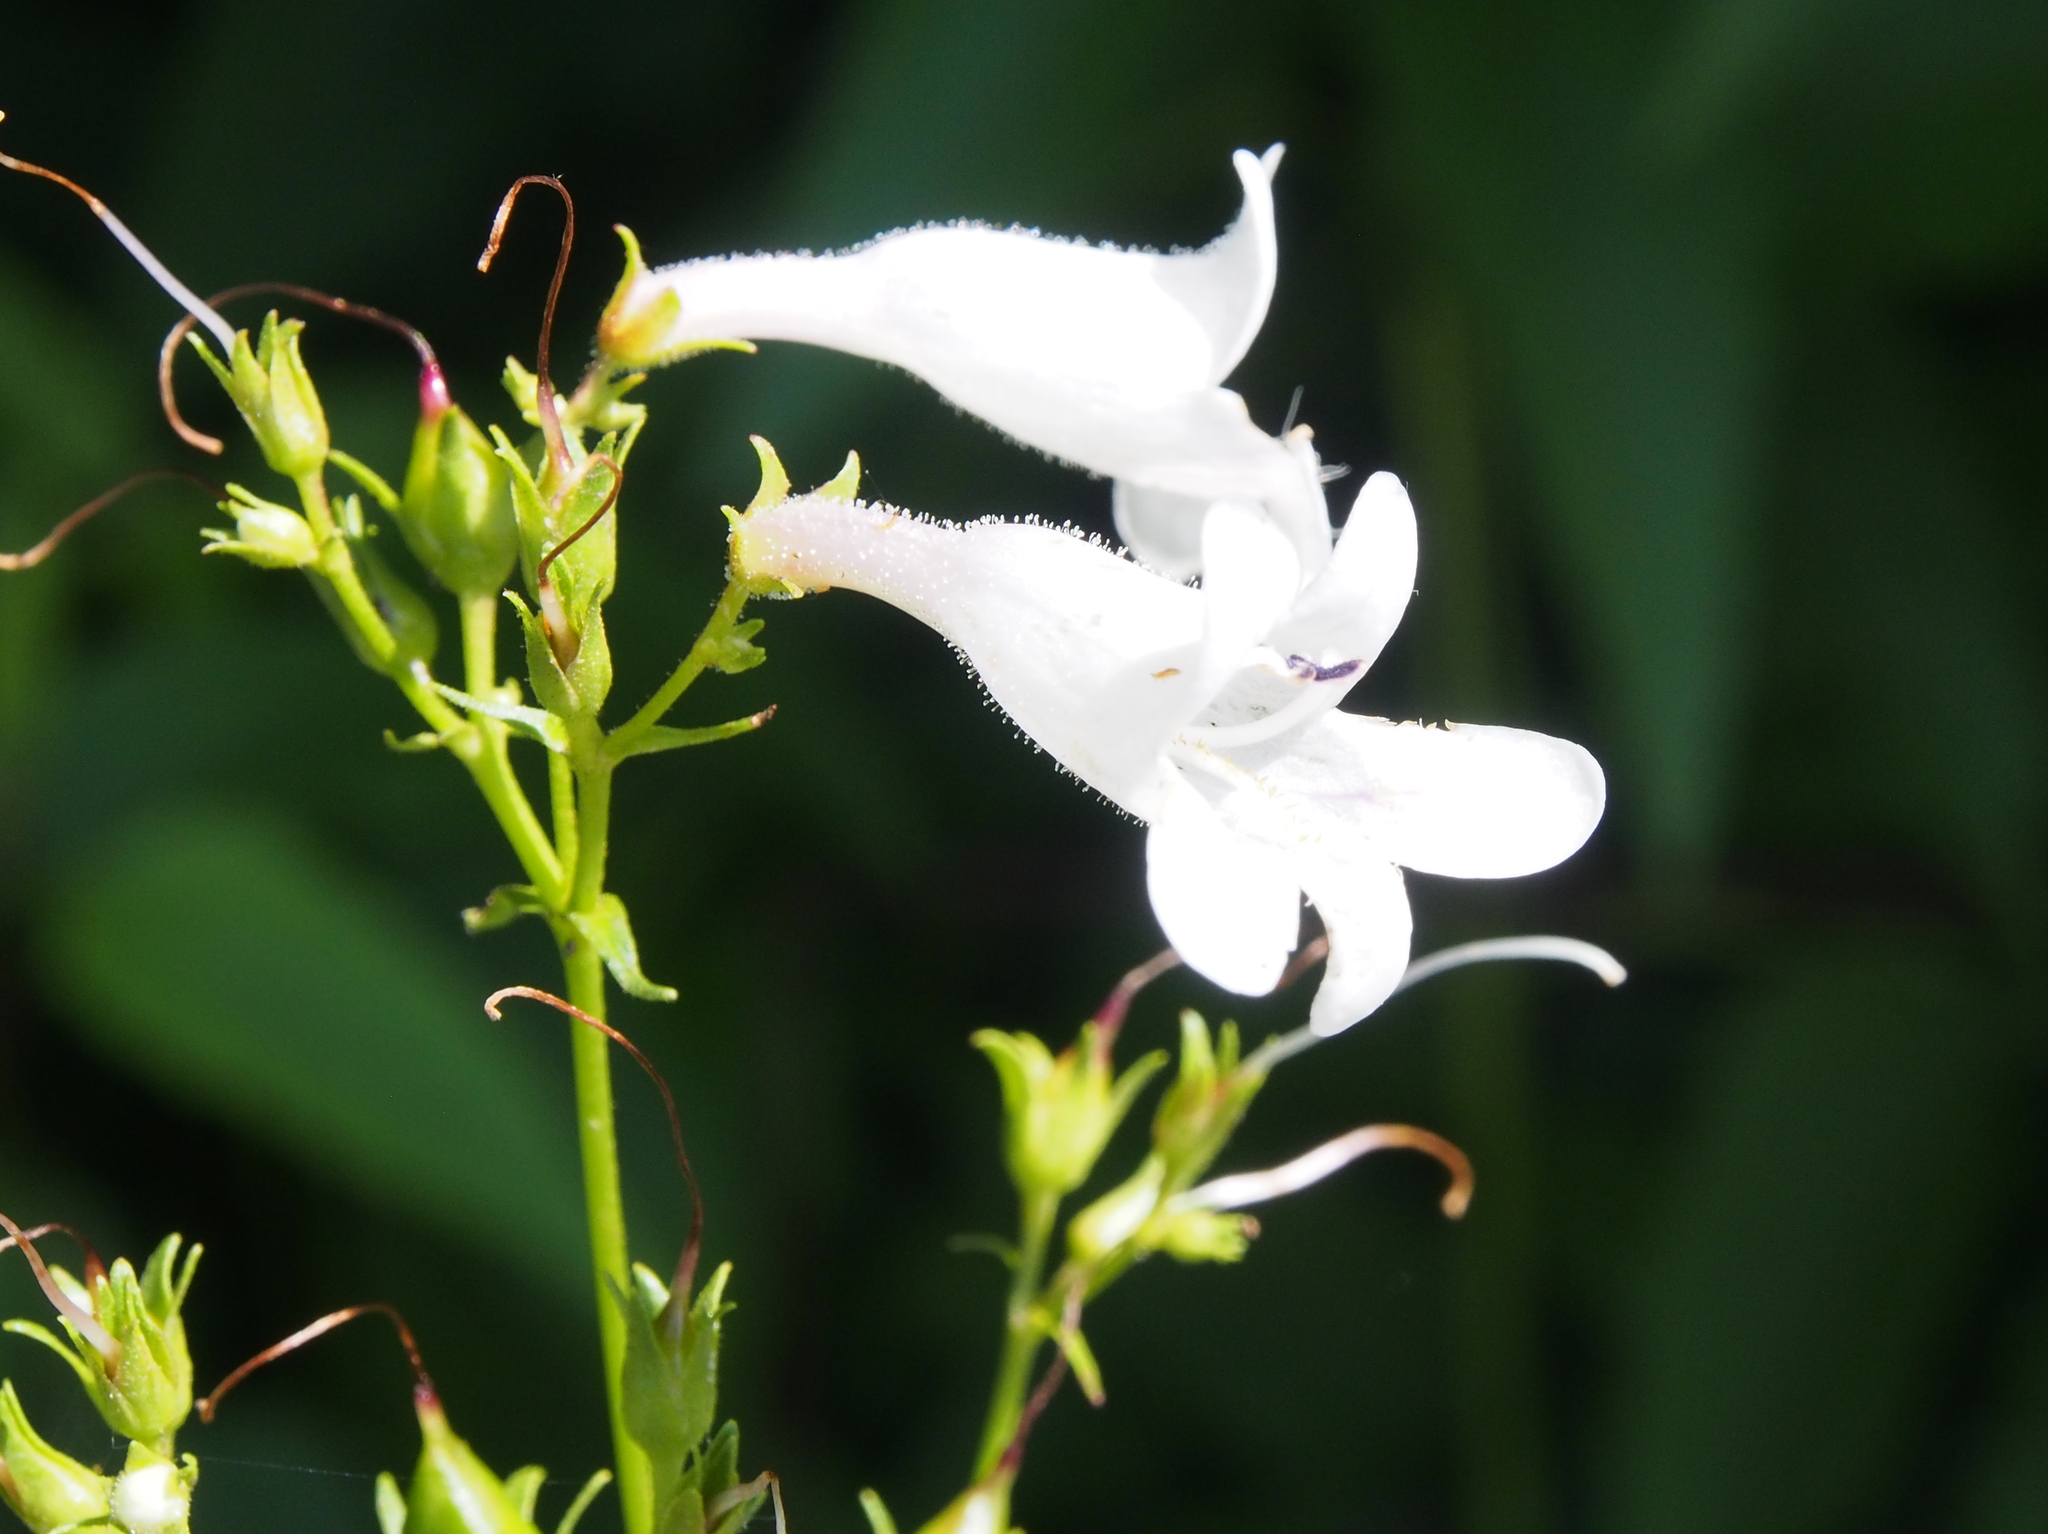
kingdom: Plantae
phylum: Tracheophyta
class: Magnoliopsida
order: Lamiales
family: Plantaginaceae
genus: Penstemon
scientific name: Penstemon digitalis
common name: Foxglove beardtongue
